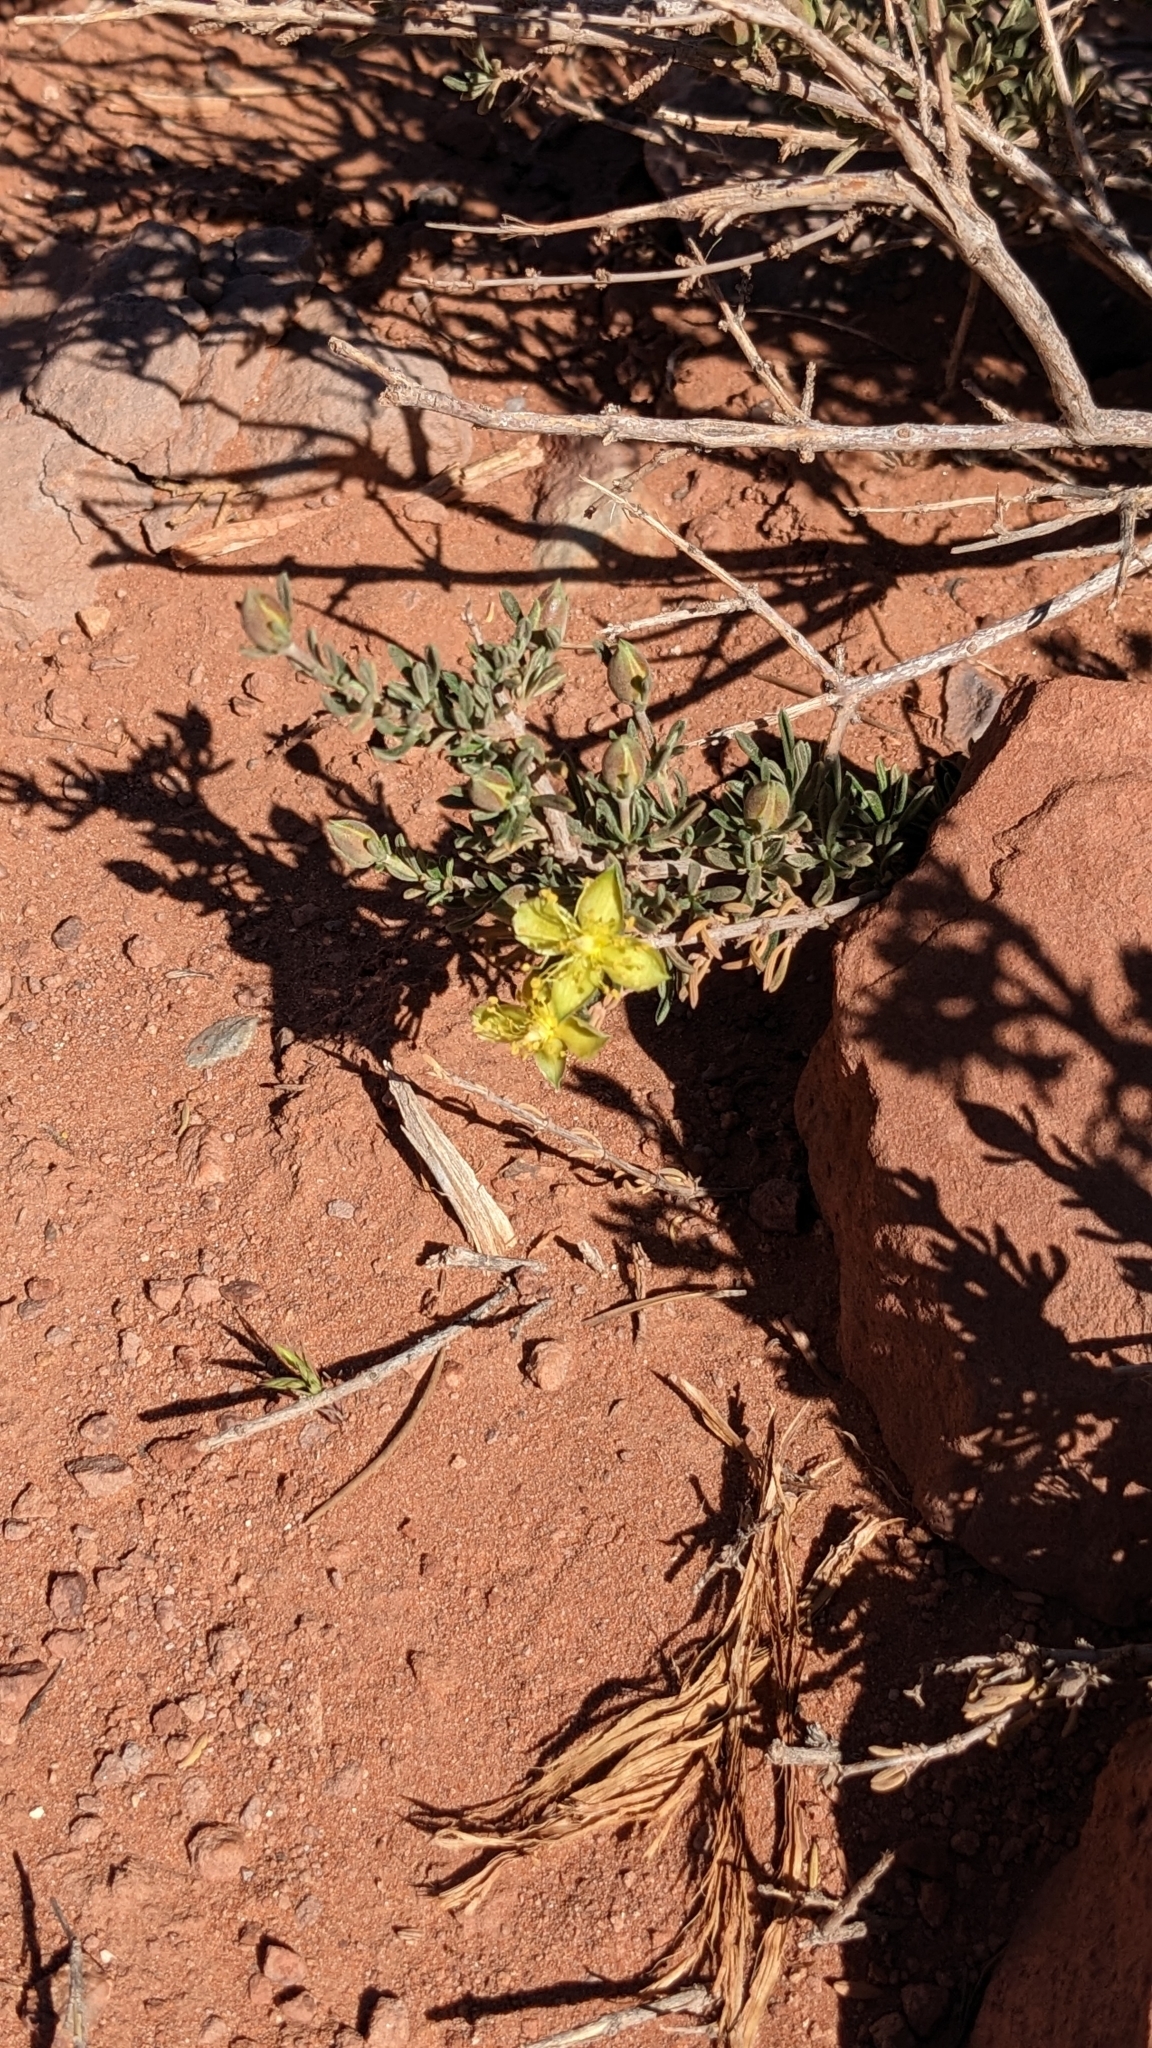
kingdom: Plantae
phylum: Tracheophyta
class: Magnoliopsida
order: Rosales
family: Rosaceae
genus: Coleogyne
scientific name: Coleogyne ramosissima
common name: Blackbrush
